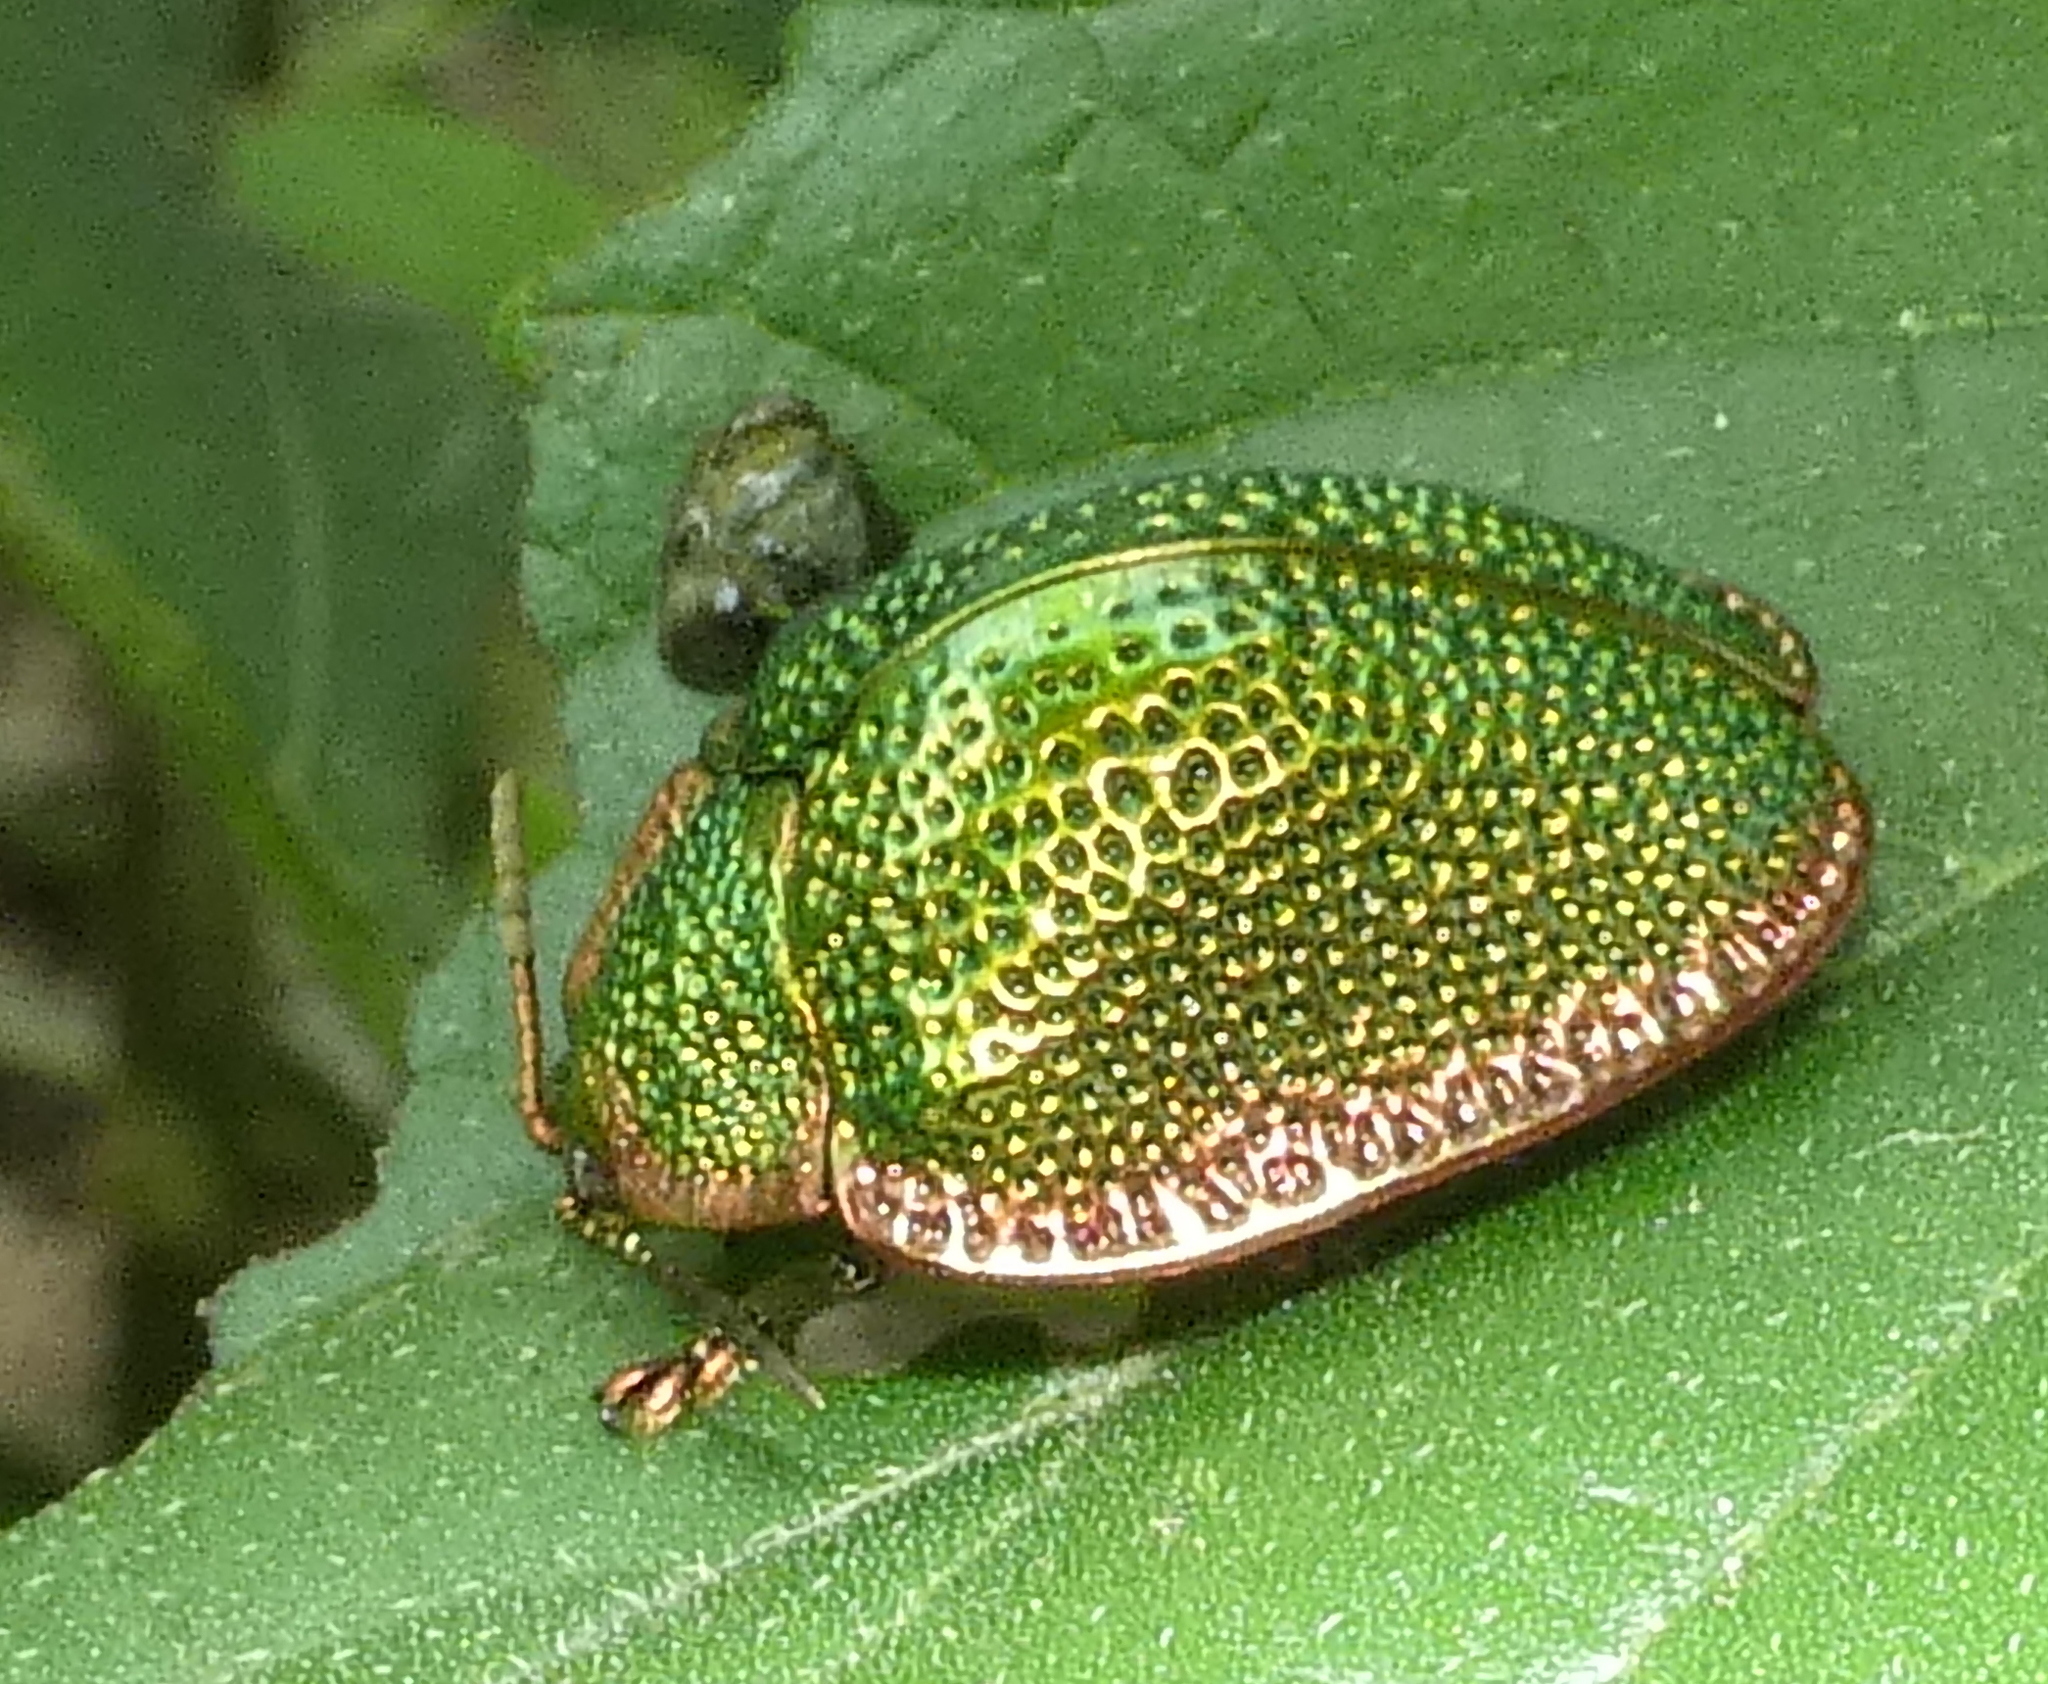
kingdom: Animalia
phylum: Arthropoda
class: Insecta
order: Coleoptera
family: Chrysomelidae
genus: Polychalca
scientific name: Polychalca punctatissima
